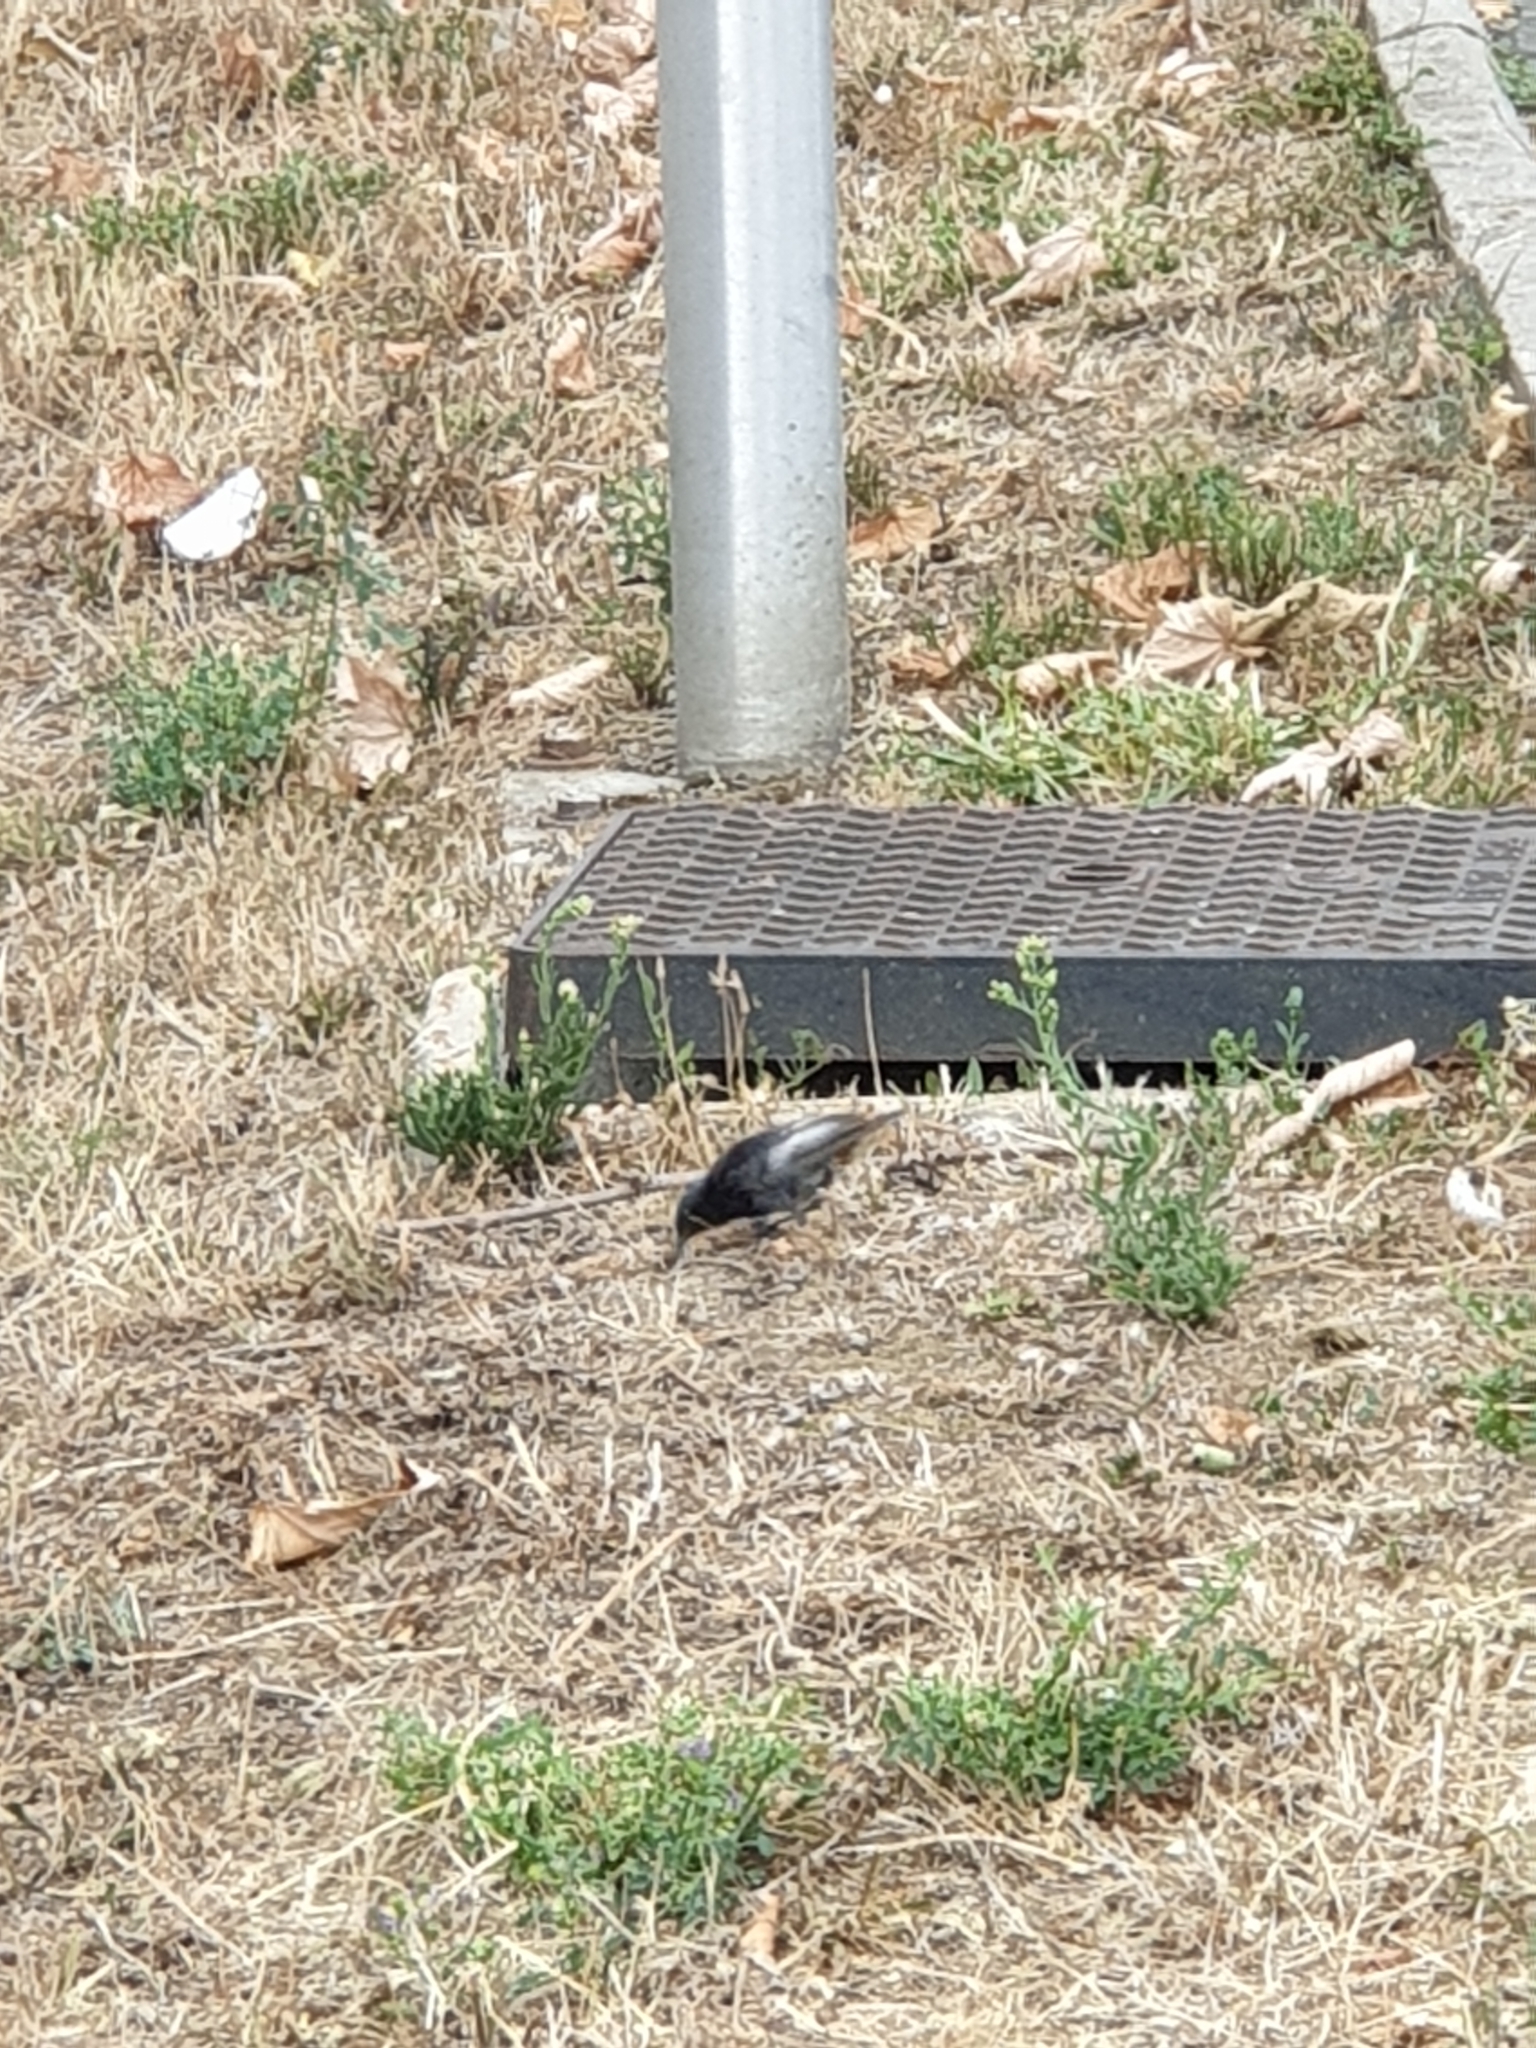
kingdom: Animalia
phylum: Chordata
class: Aves
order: Passeriformes
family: Muscicapidae
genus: Phoenicurus
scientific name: Phoenicurus ochruros
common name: Black redstart
